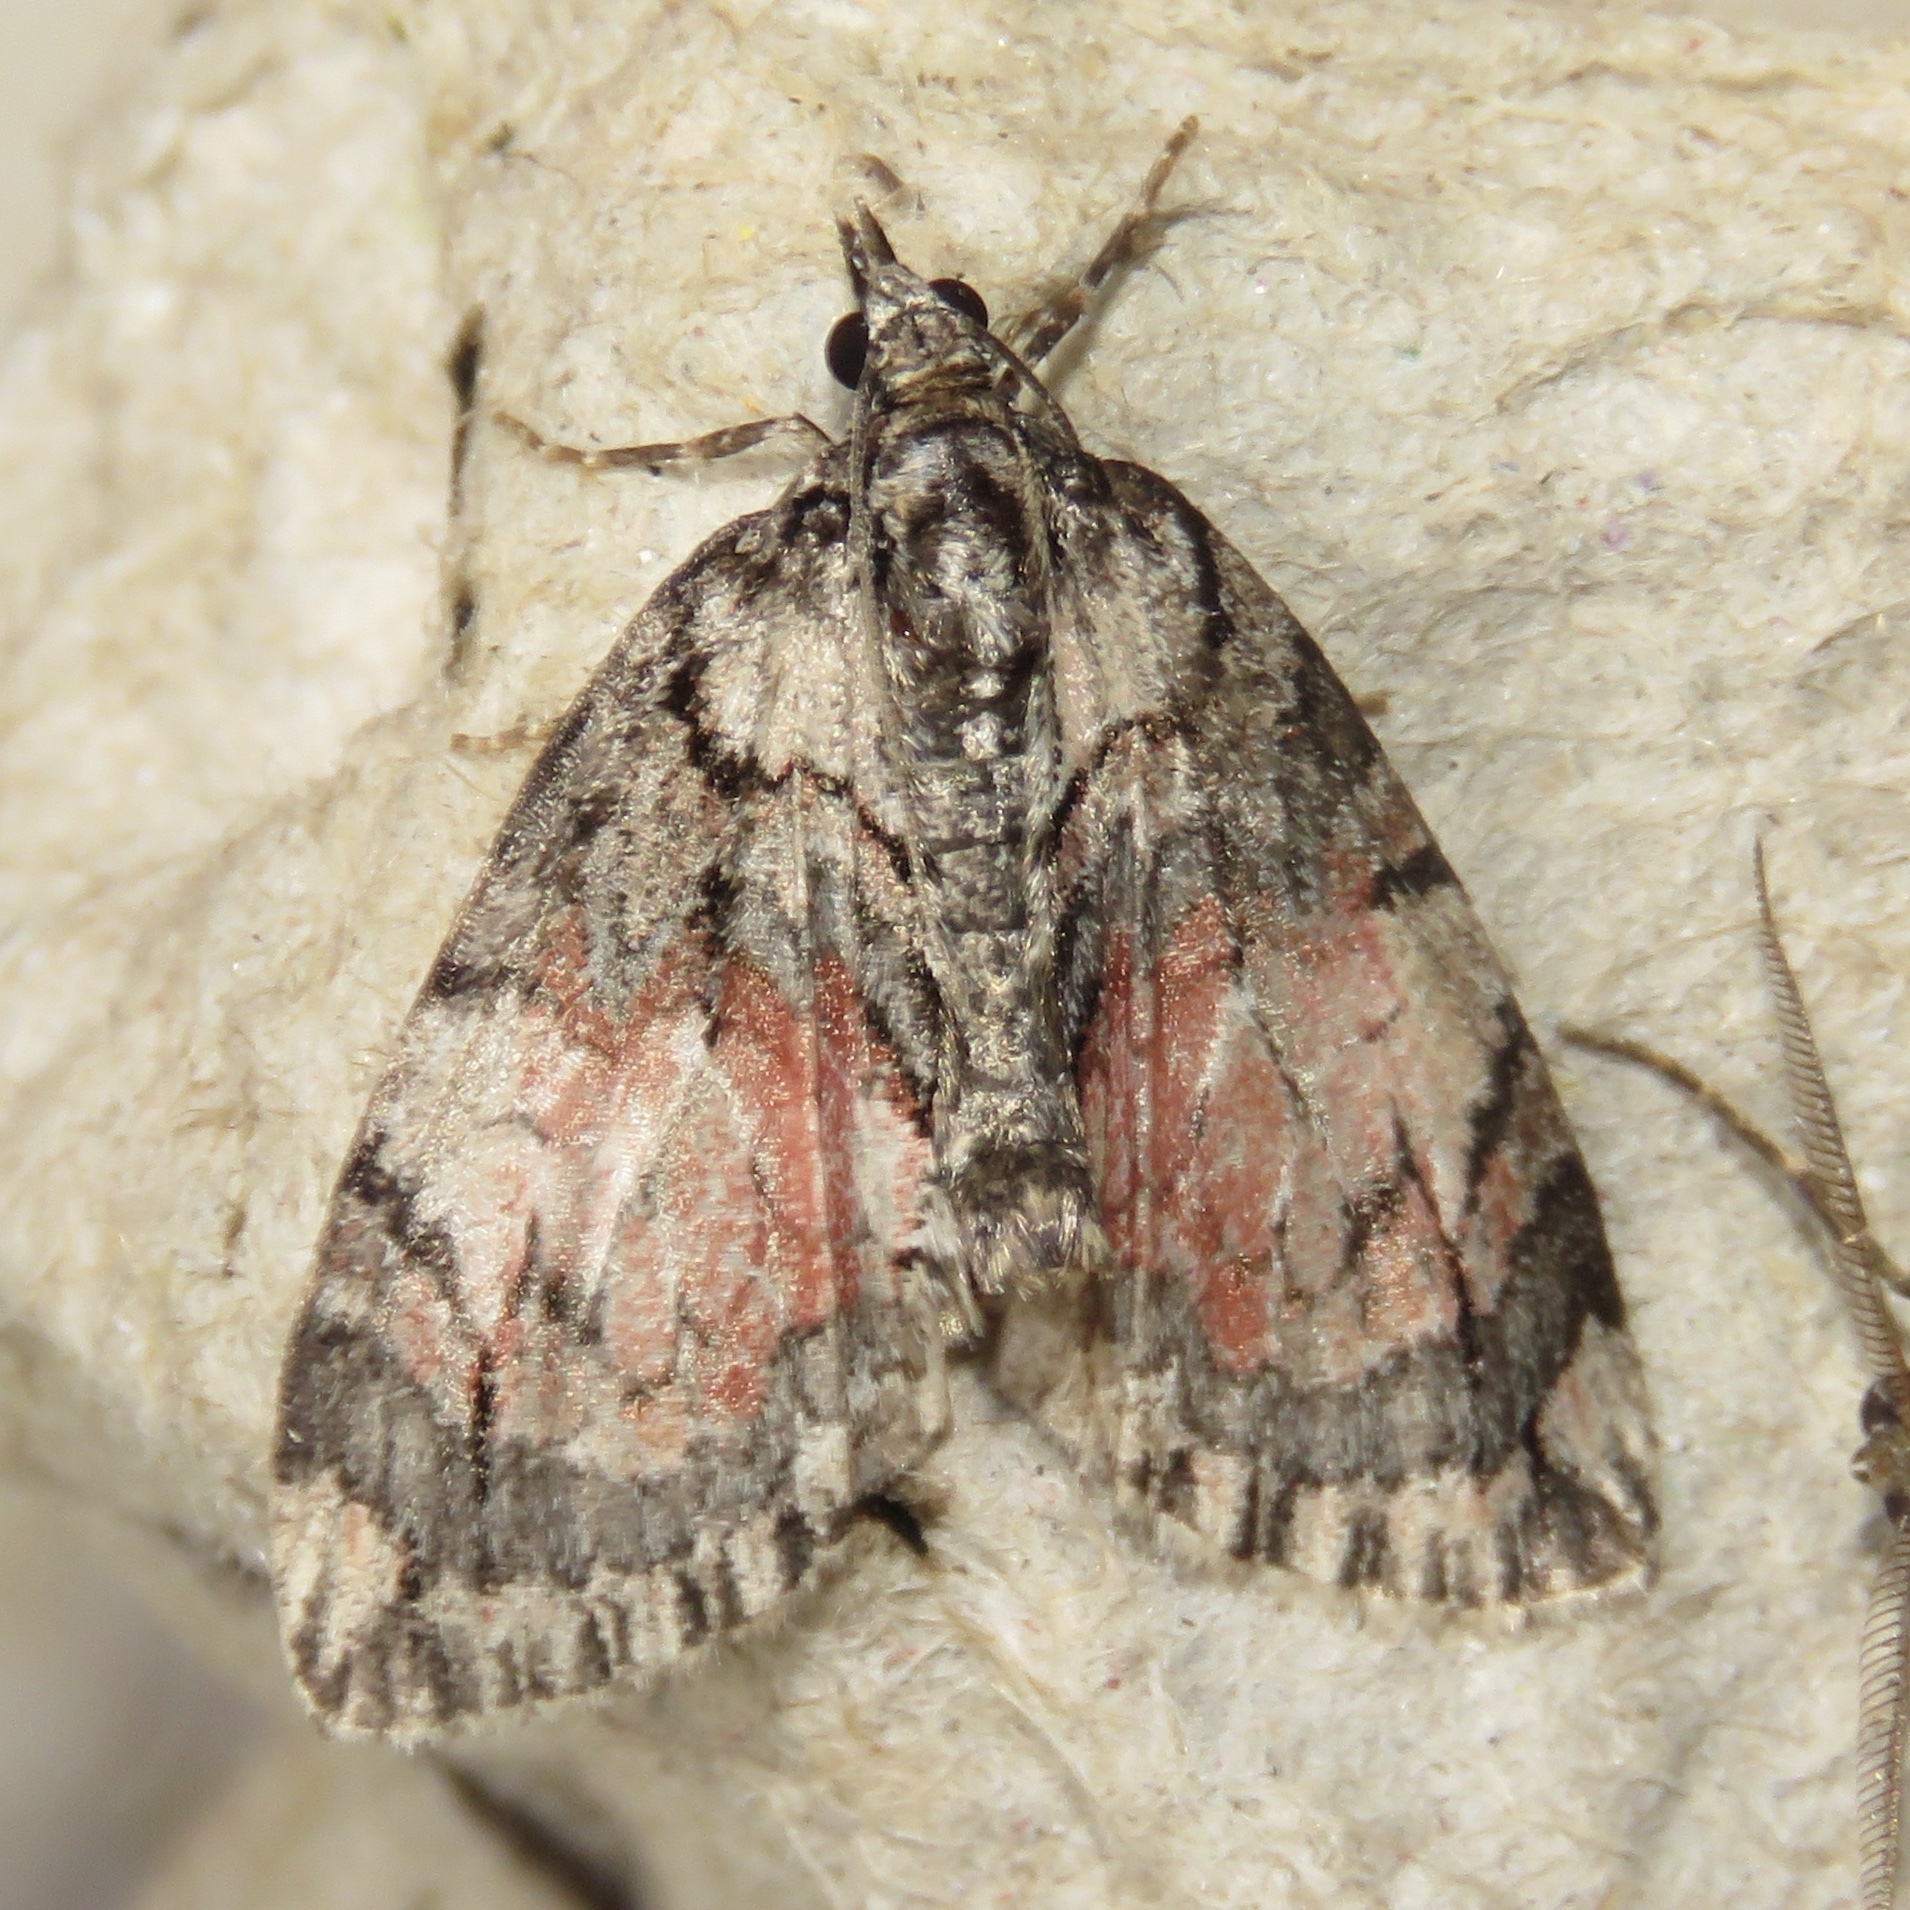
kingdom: Animalia
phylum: Arthropoda
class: Insecta
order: Lepidoptera
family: Geometridae
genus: Hydriomena
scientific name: Hydriomena perfracta
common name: Shattered hydriomena moth
